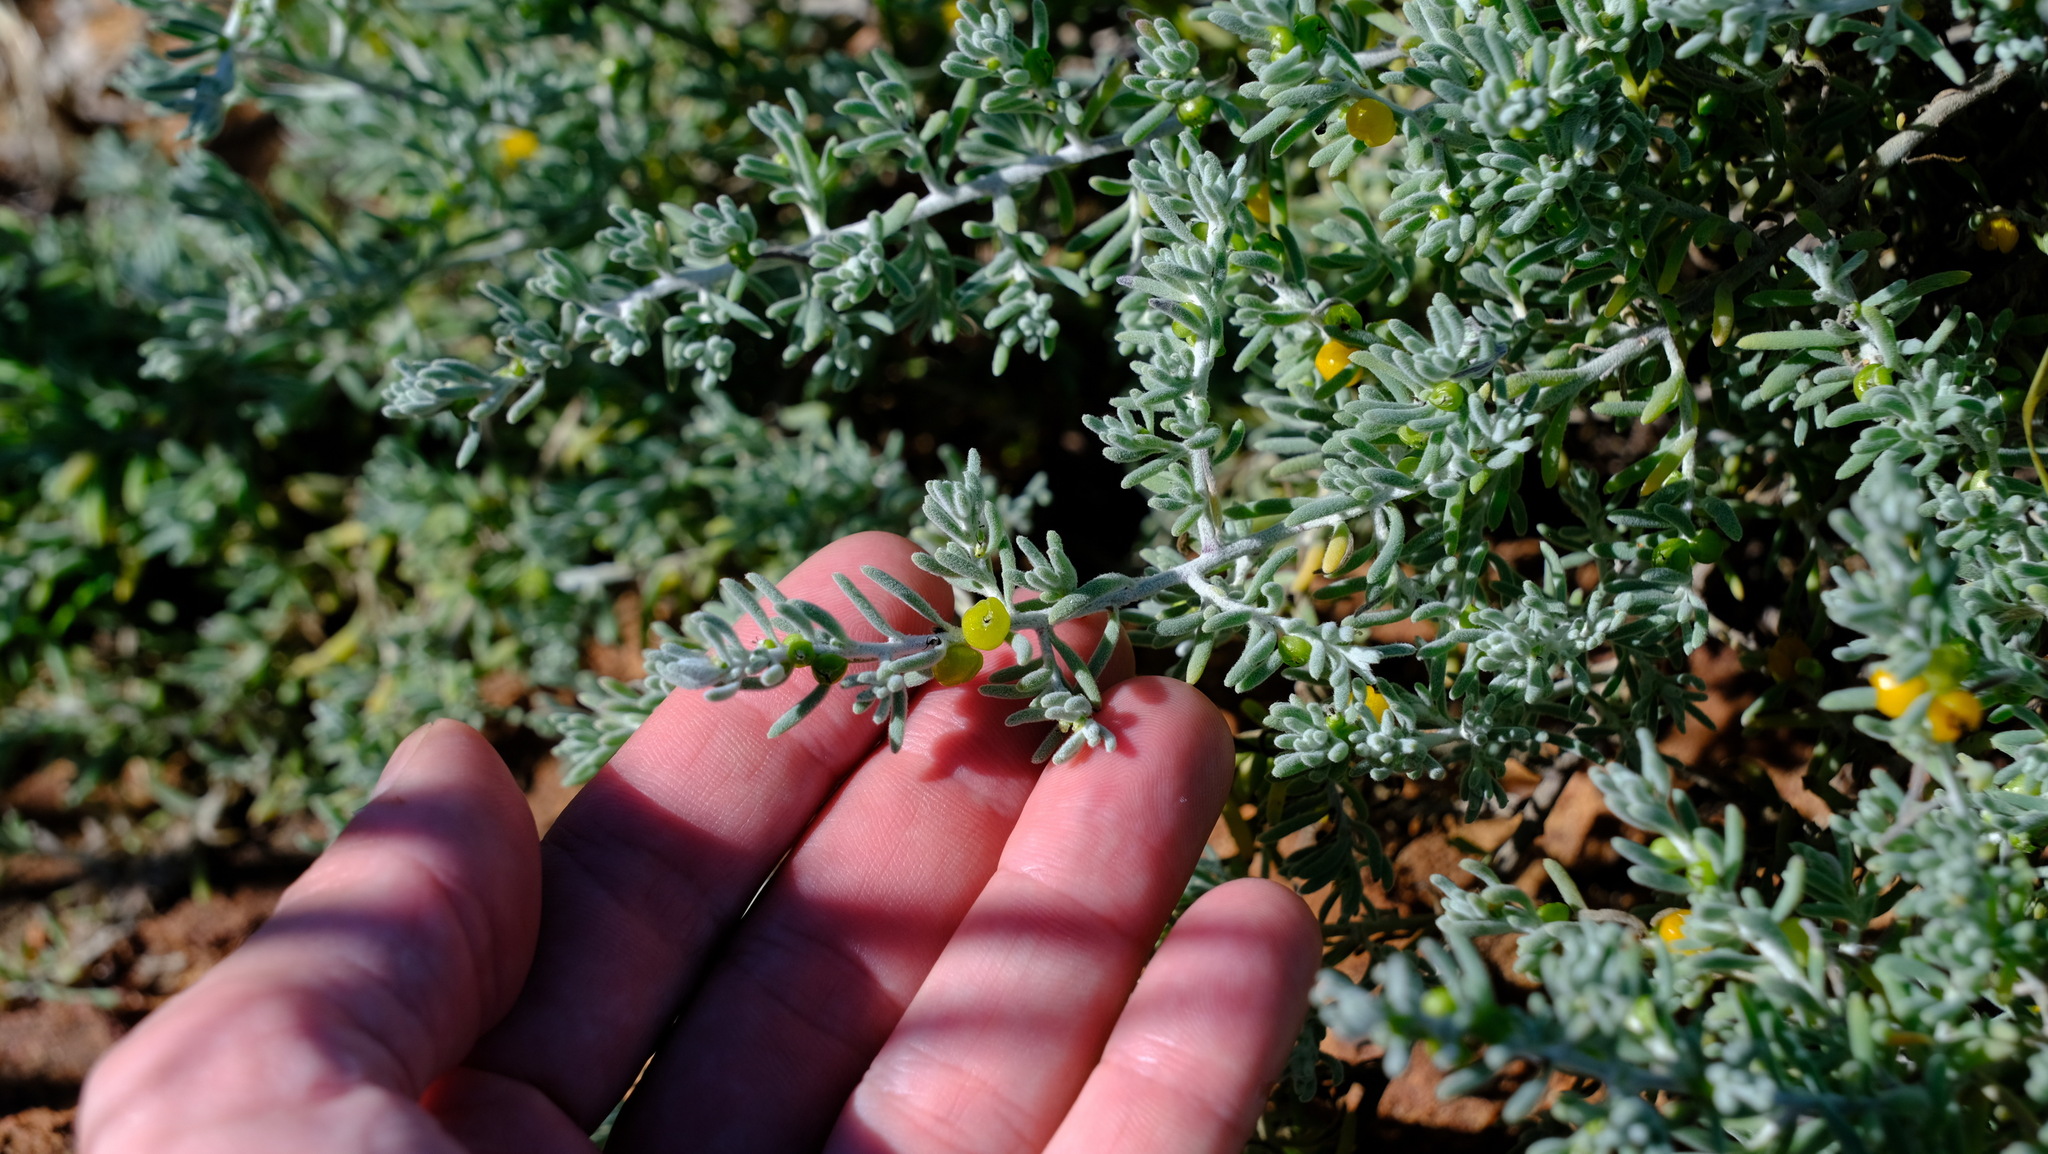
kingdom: Plantae
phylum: Tracheophyta
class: Magnoliopsida
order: Caryophyllales
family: Amaranthaceae
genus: Enchylaena
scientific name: Enchylaena tomentosa
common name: Ruby saltbush
